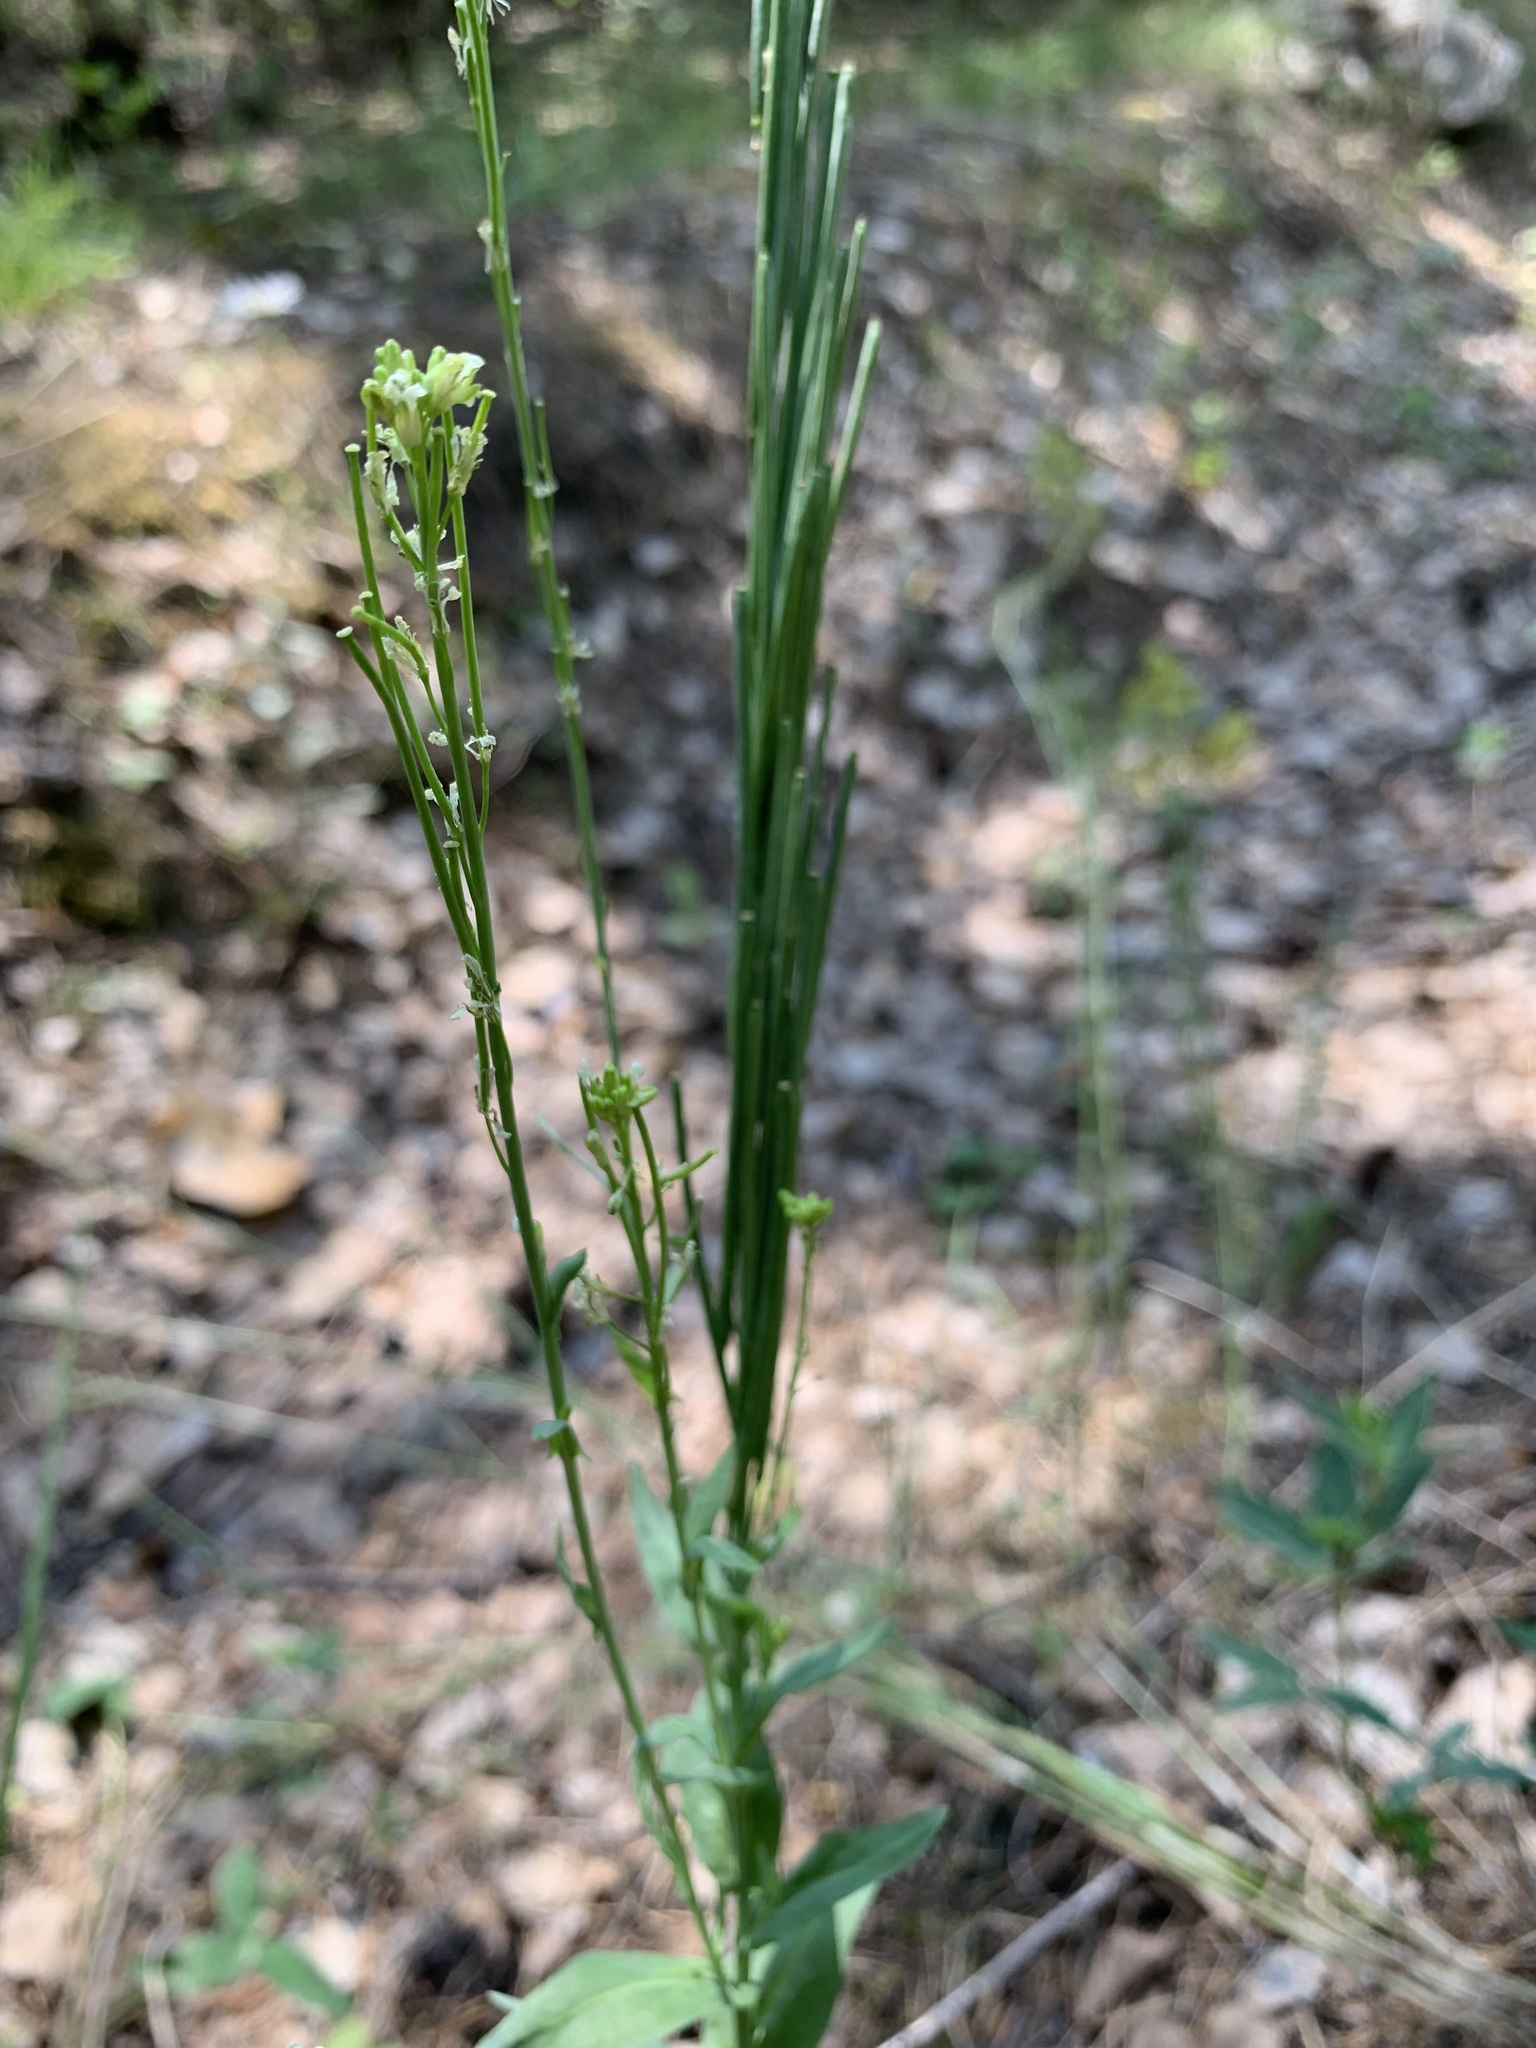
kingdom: Plantae
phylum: Tracheophyta
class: Magnoliopsida
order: Brassicales
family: Brassicaceae
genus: Turritis
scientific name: Turritis glabra
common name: Tower rockcress
